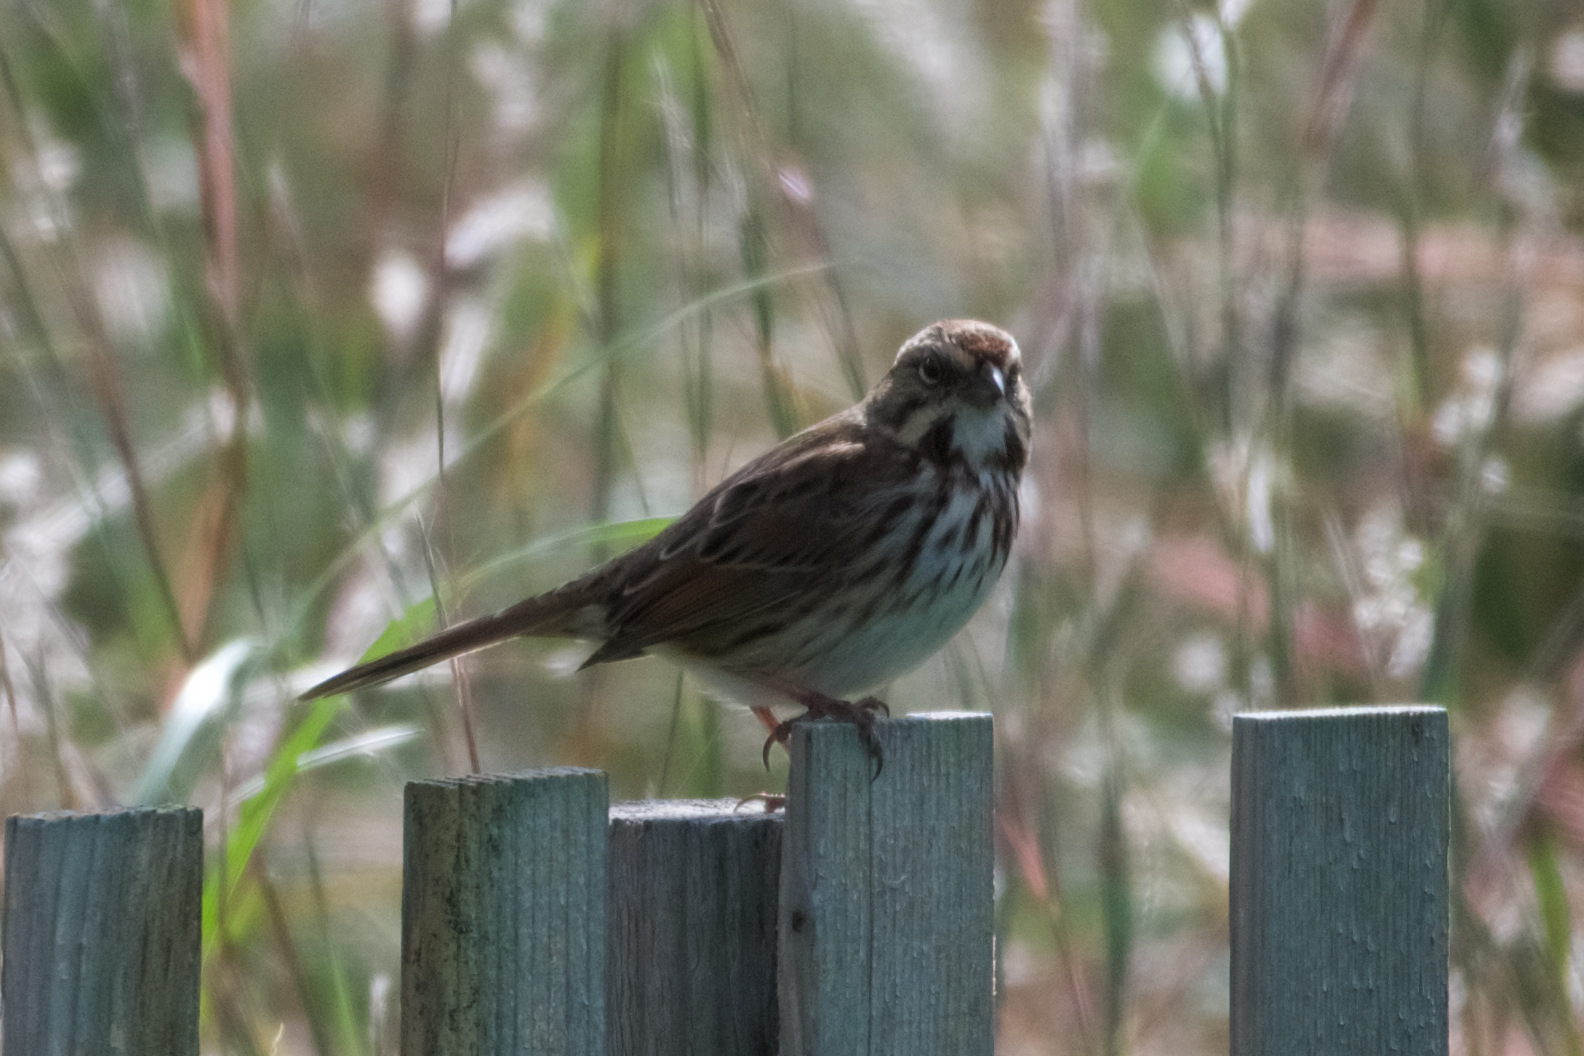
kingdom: Animalia
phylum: Chordata
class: Aves
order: Passeriformes
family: Passerellidae
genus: Melospiza
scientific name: Melospiza melodia
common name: Song sparrow
